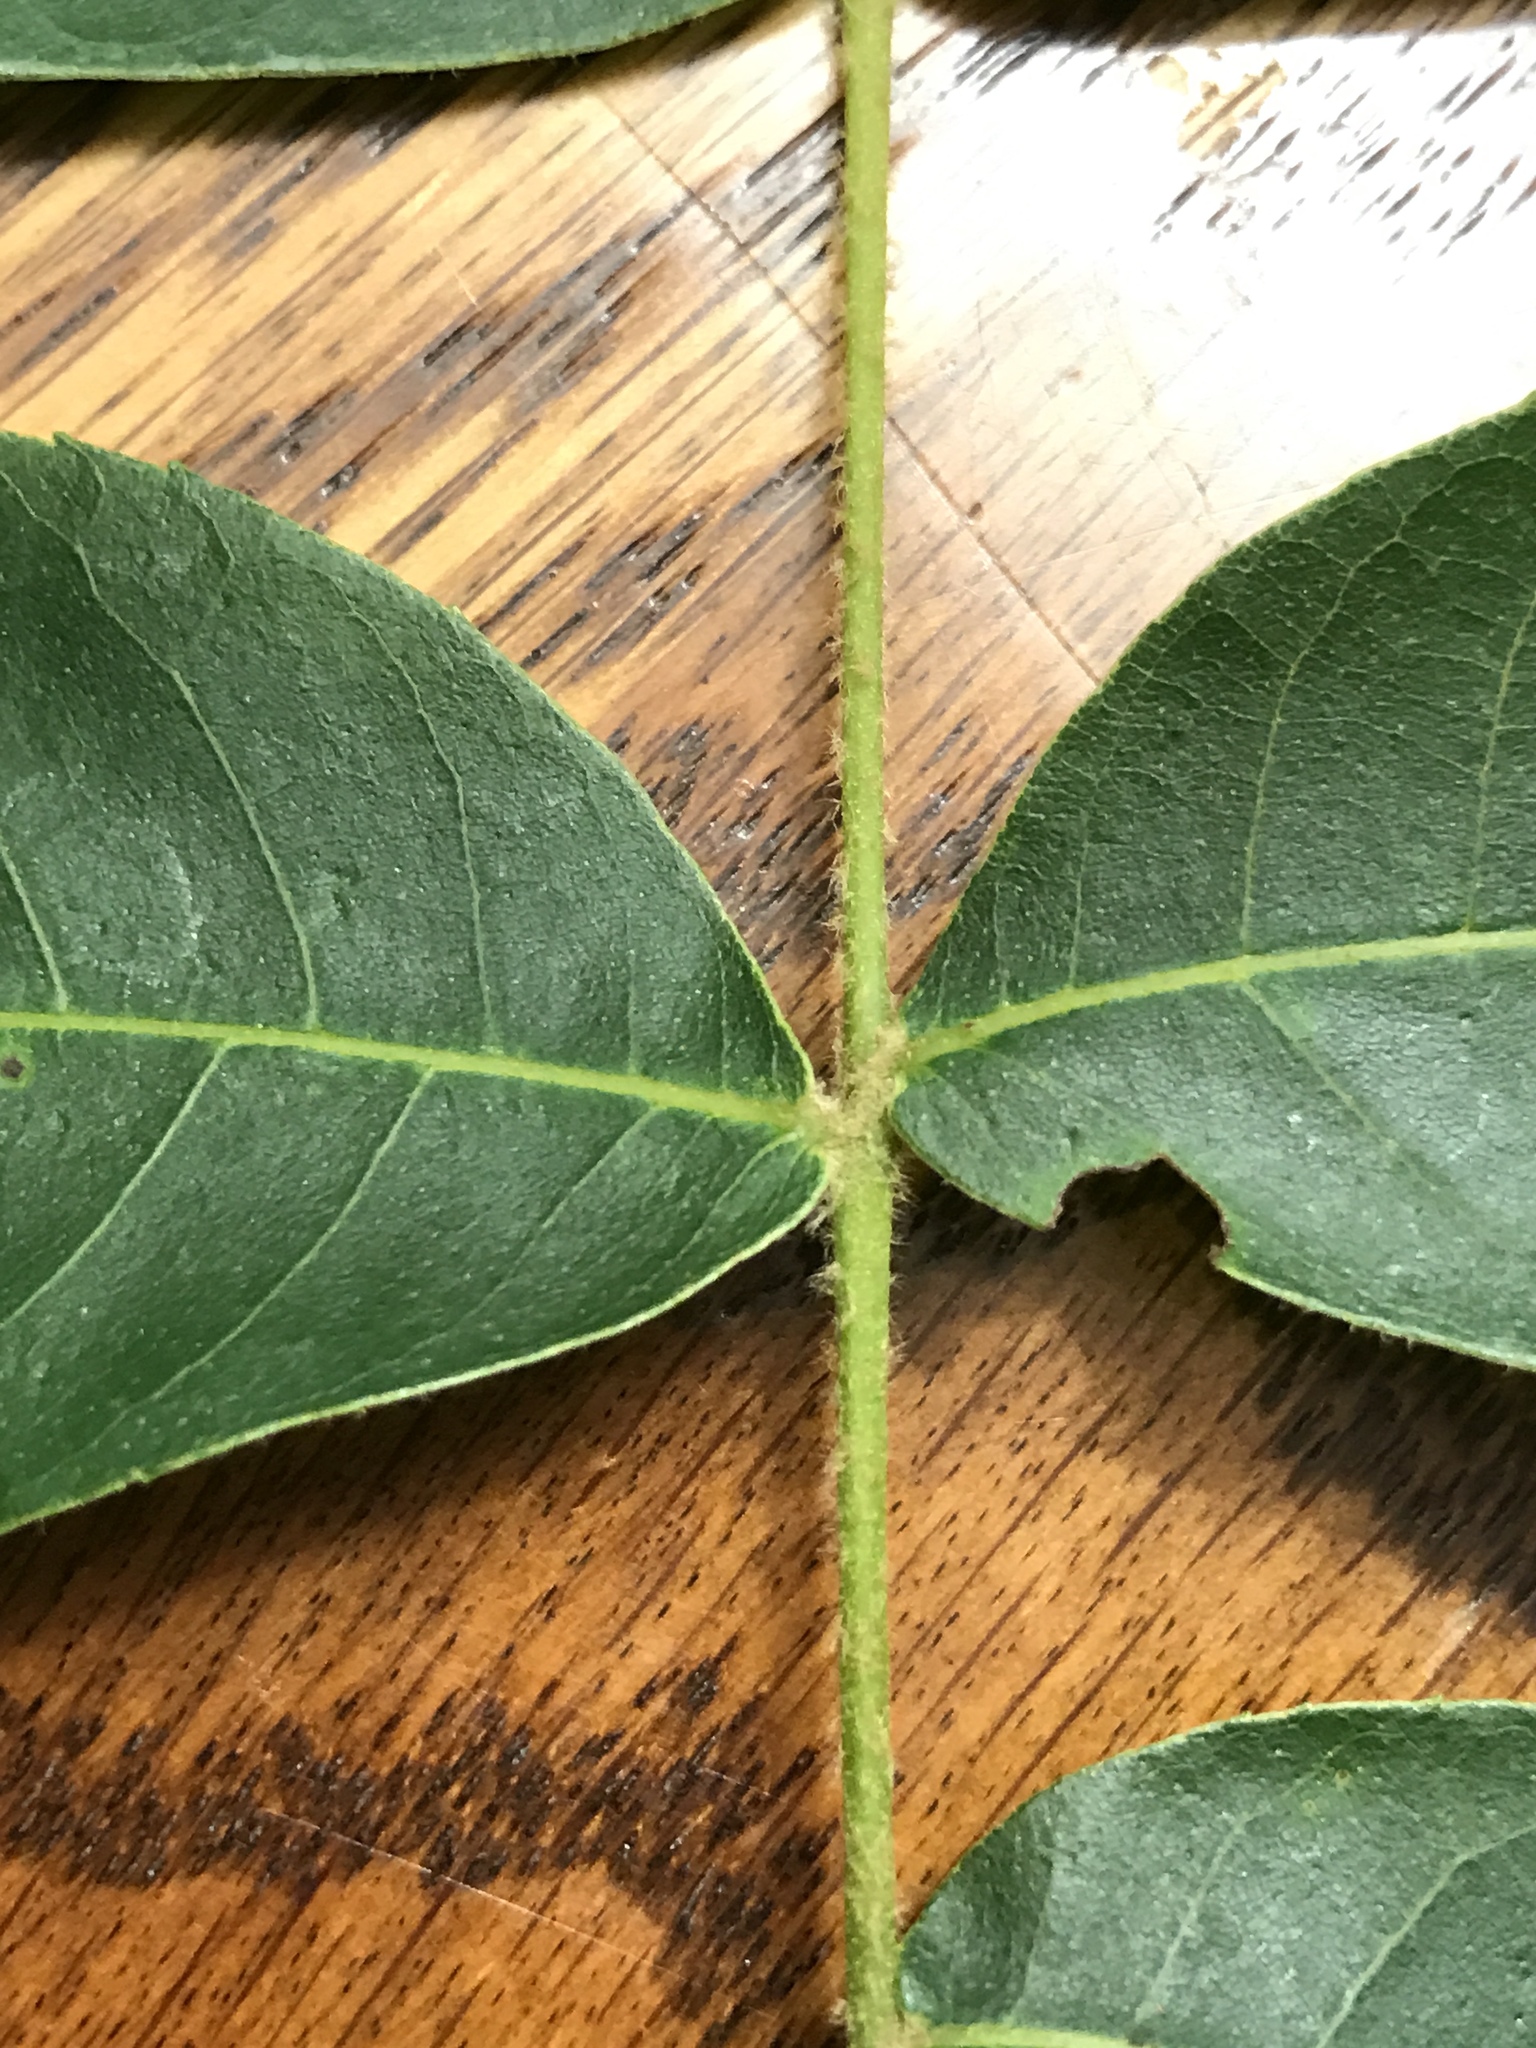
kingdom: Plantae
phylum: Tracheophyta
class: Magnoliopsida
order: Fagales
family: Juglandaceae
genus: Carya
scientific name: Carya pallida
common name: Sand hickory
